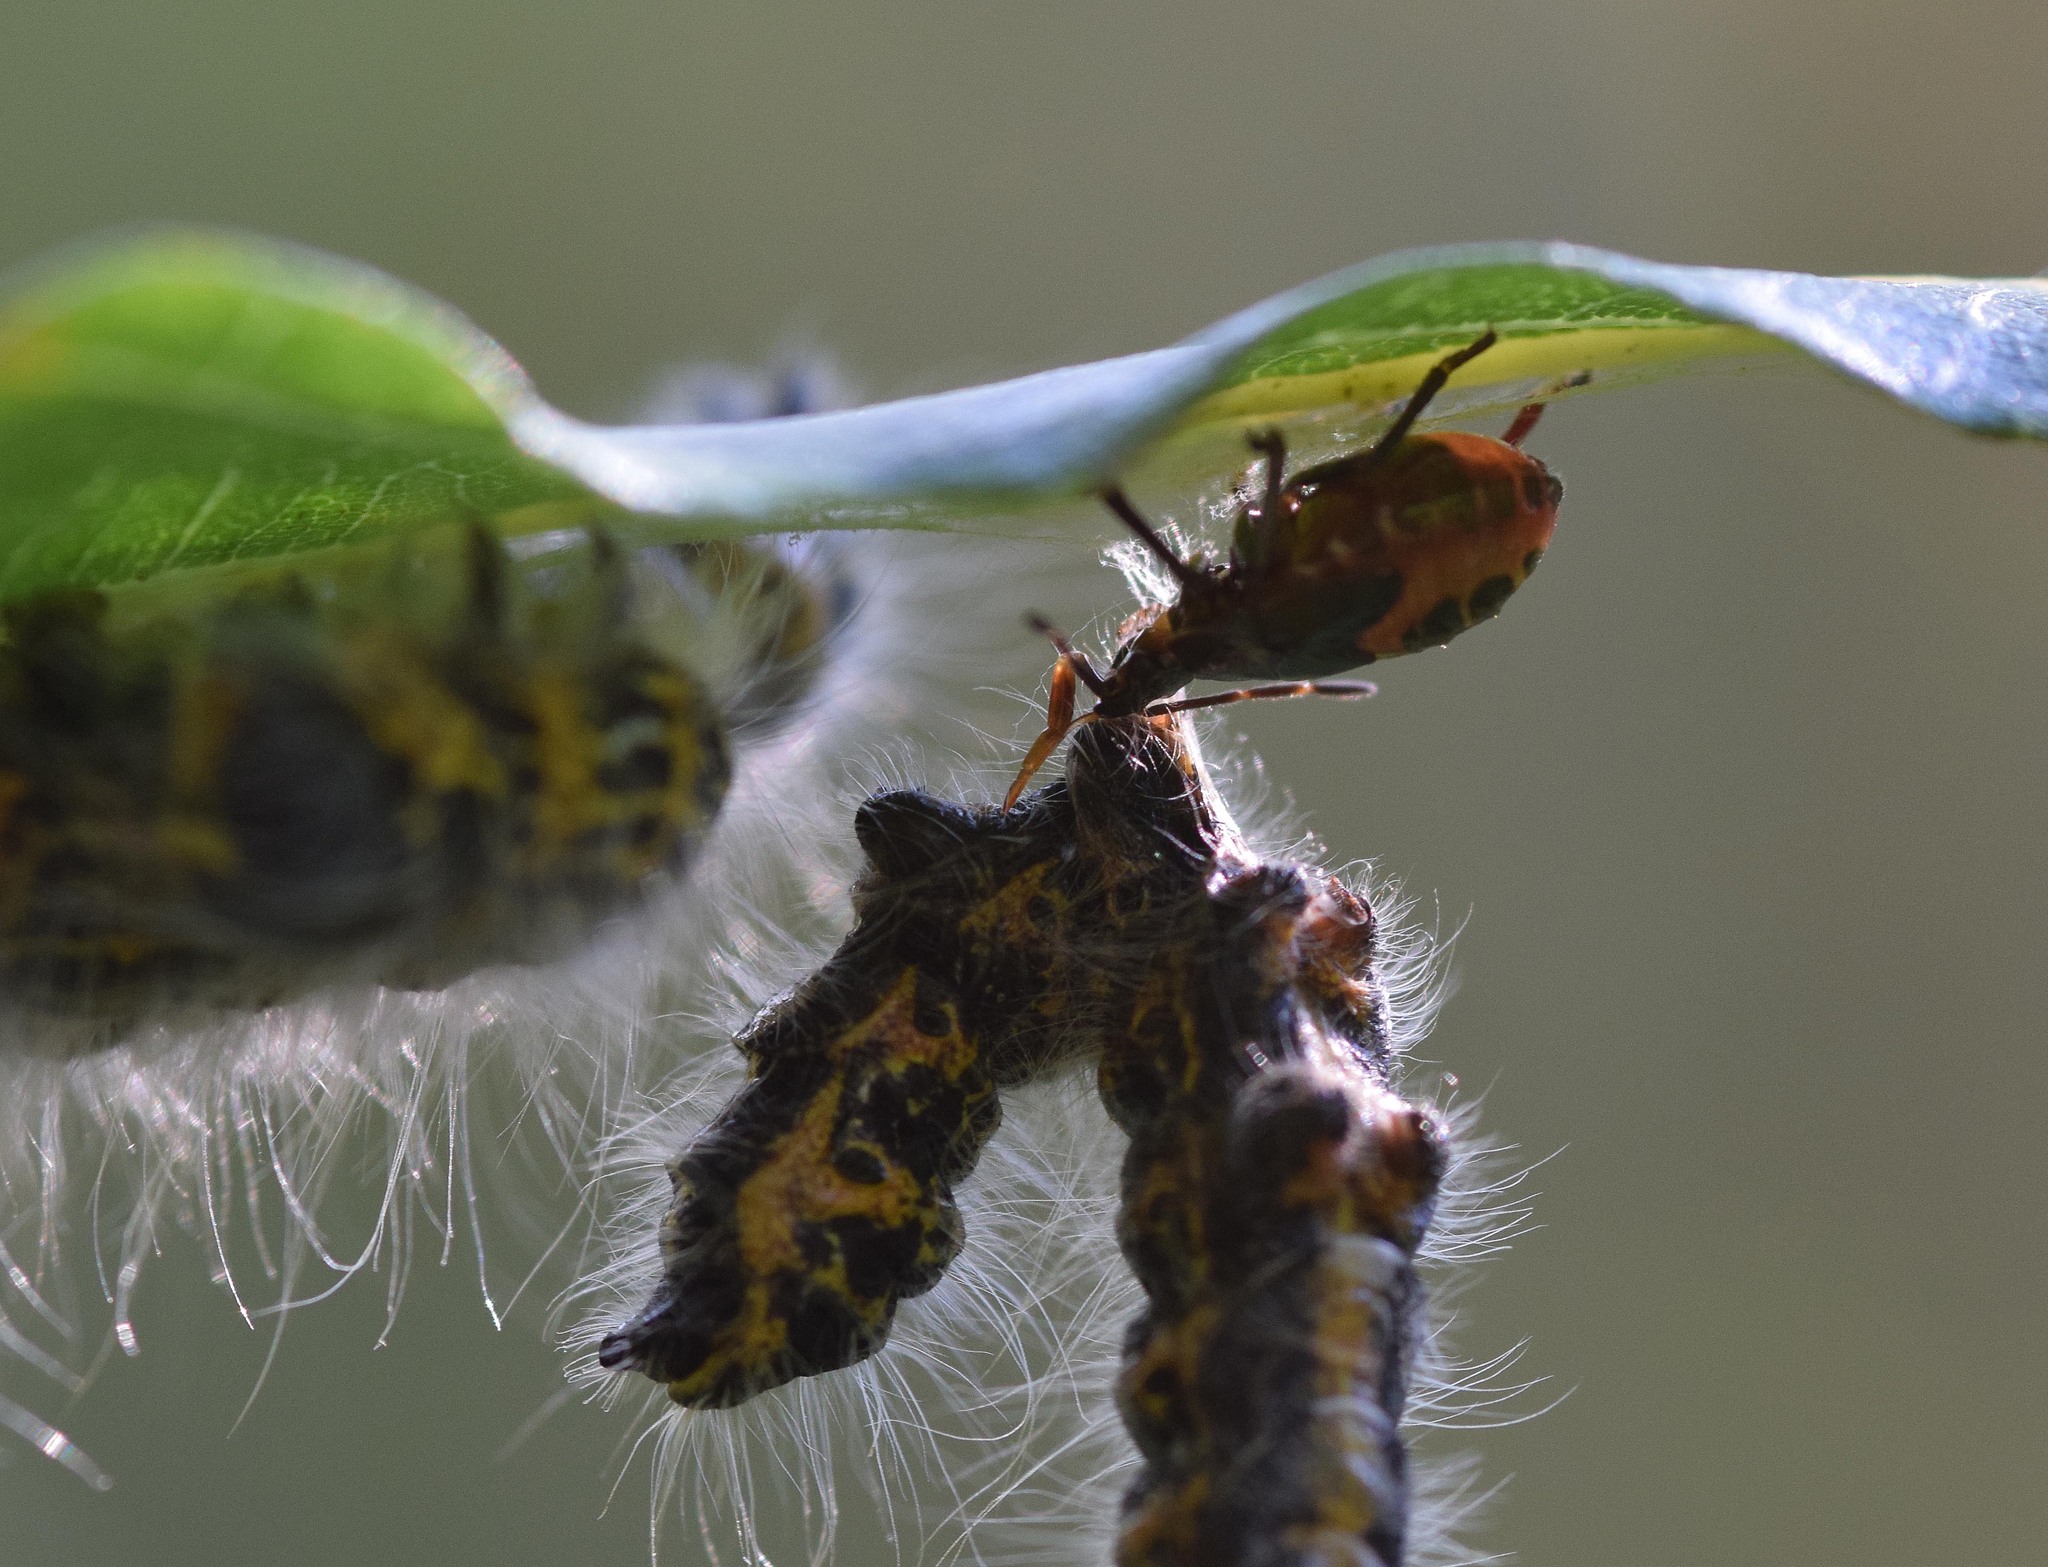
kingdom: Animalia
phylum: Arthropoda
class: Insecta
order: Hemiptera
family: Pentatomidae
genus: Troilus
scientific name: Troilus luridus
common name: Bronze shieldbug
